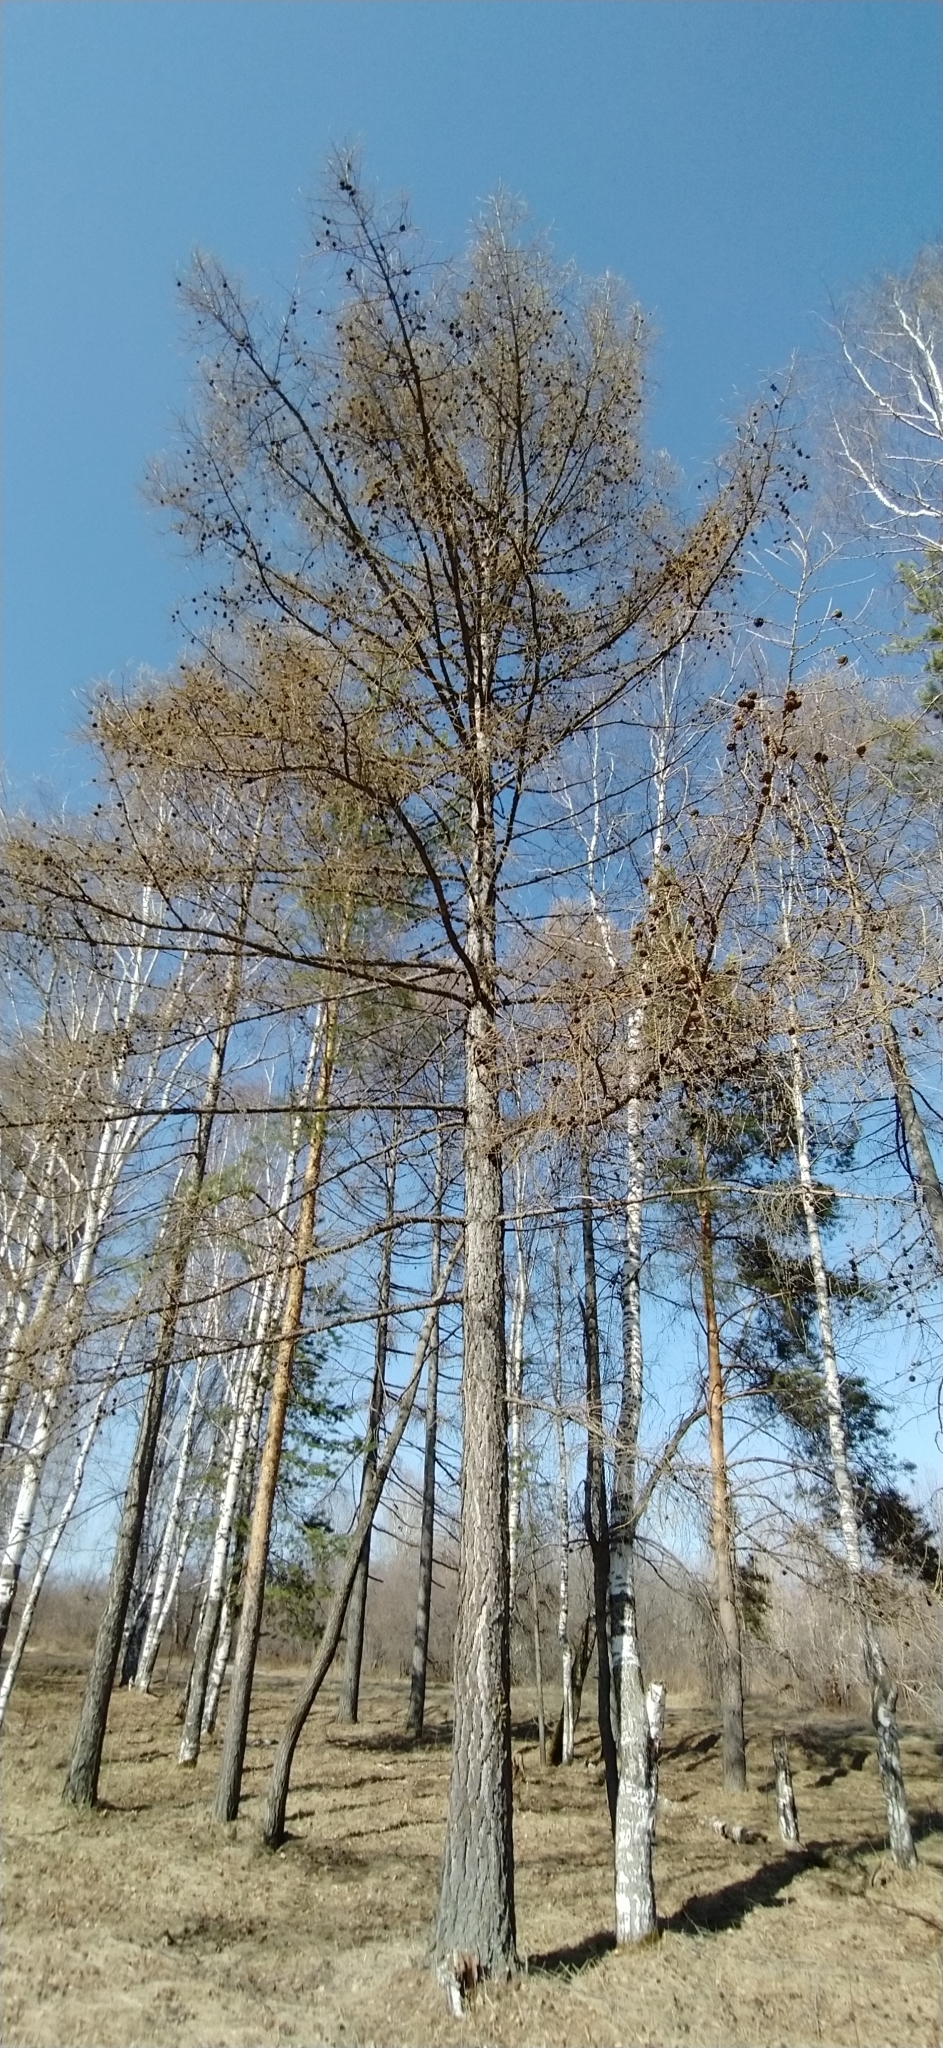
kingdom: Plantae
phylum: Tracheophyta
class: Pinopsida
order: Pinales
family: Pinaceae
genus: Larix
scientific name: Larix sibirica
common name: Siberian larch
